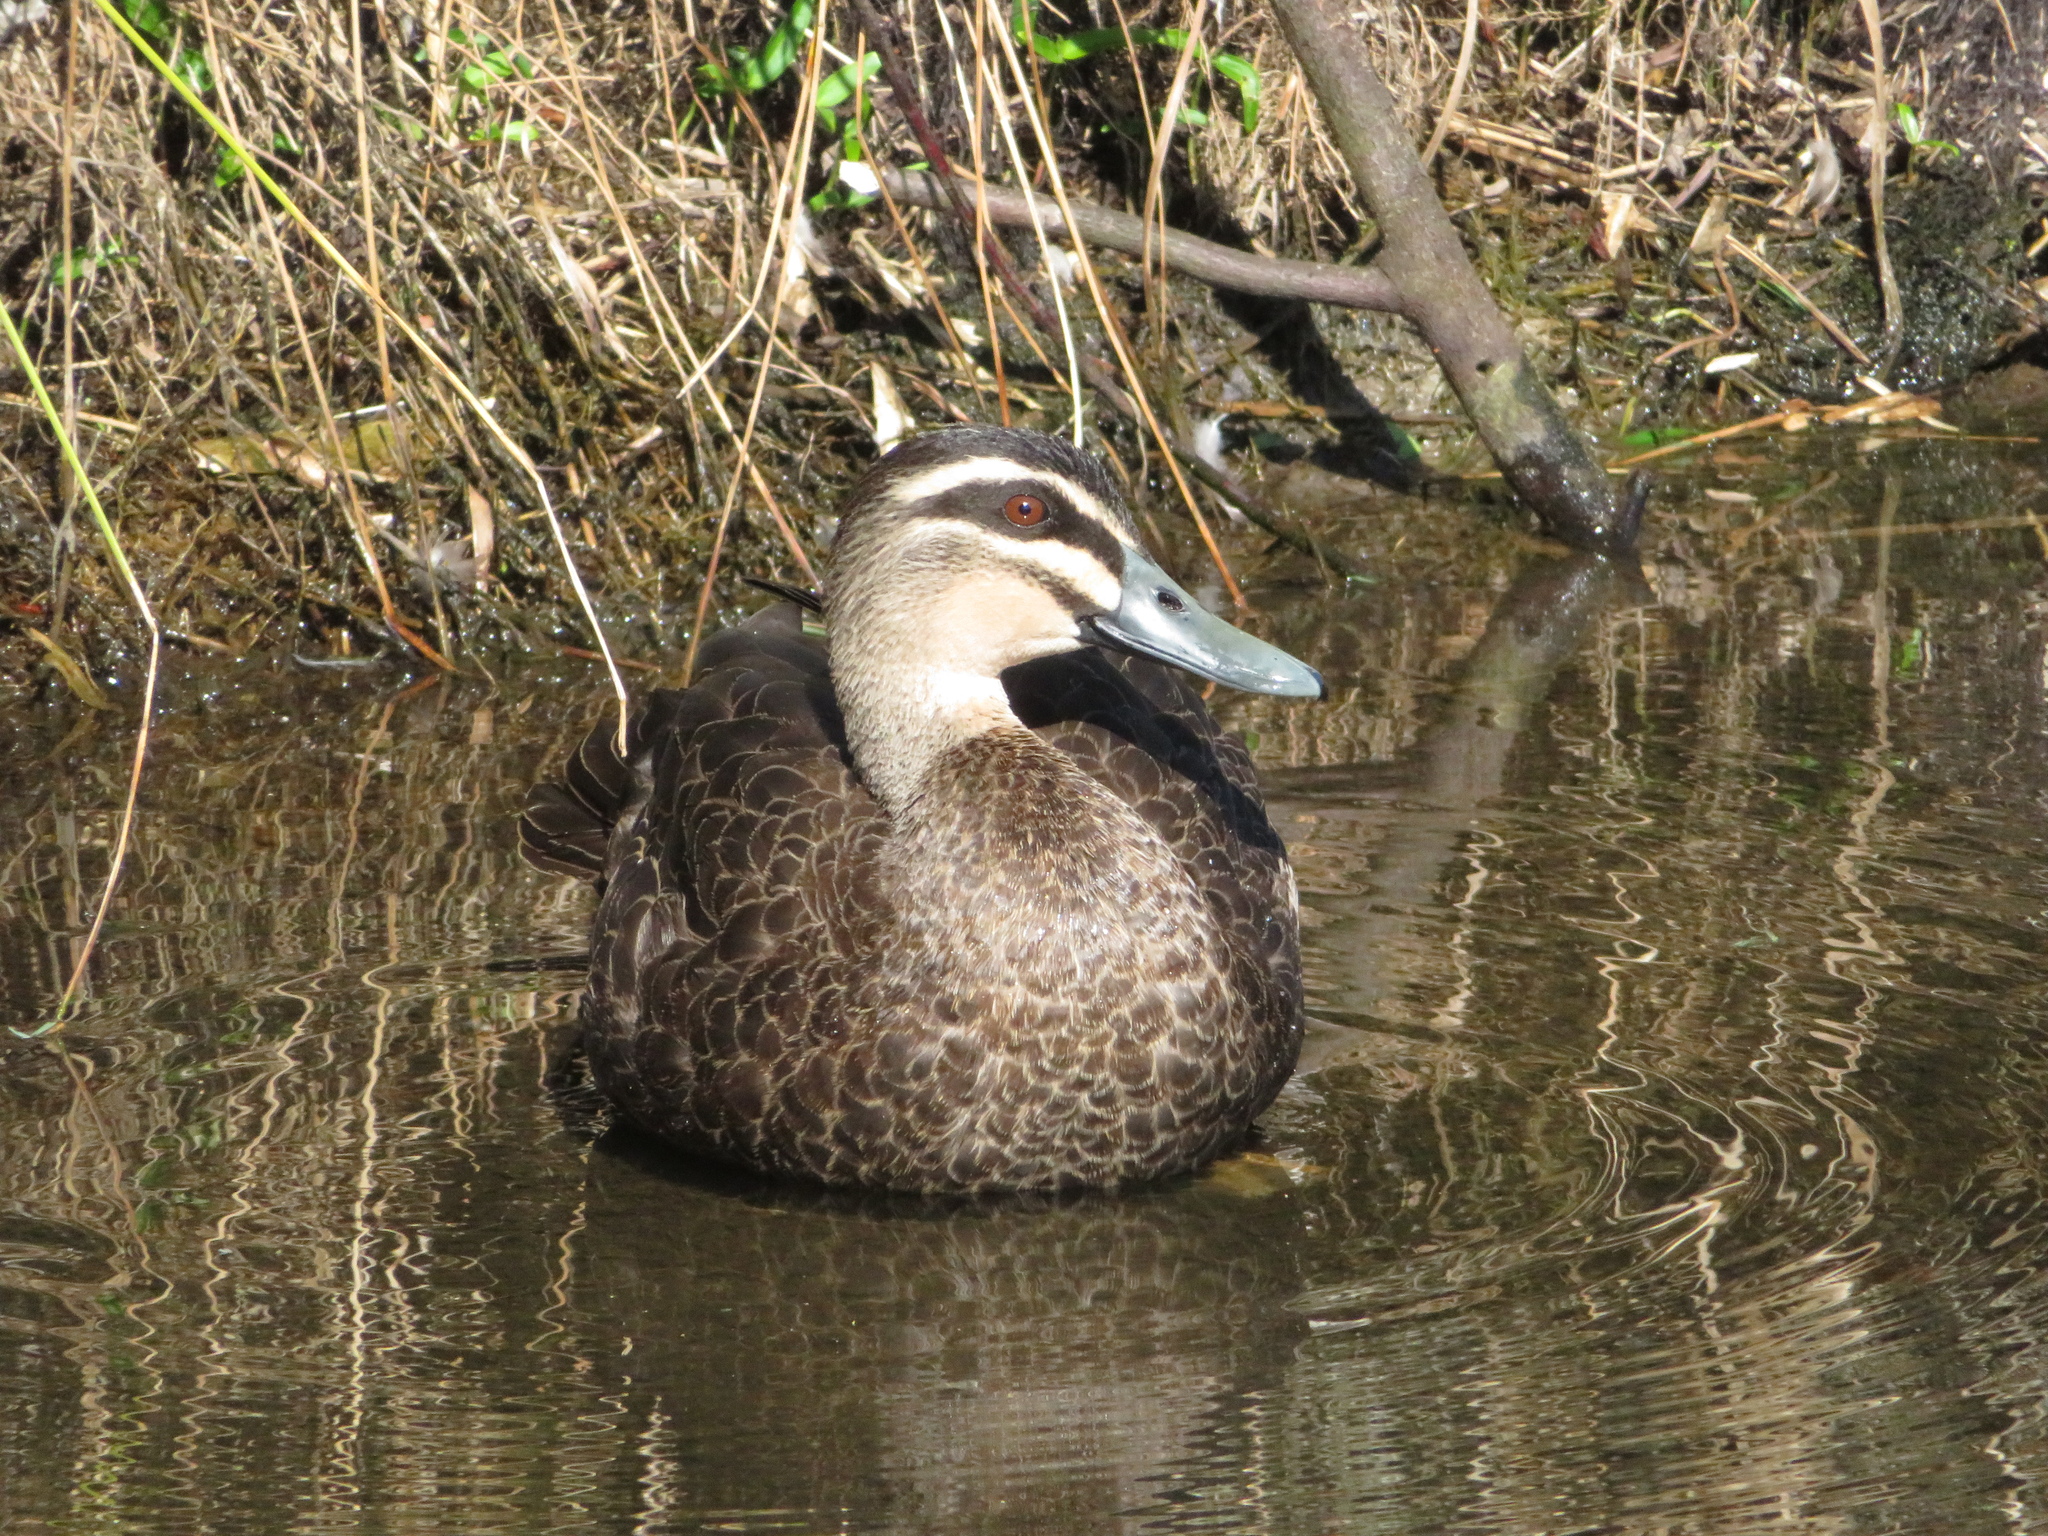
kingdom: Animalia
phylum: Chordata
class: Aves
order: Anseriformes
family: Anatidae
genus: Anas
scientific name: Anas superciliosa
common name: Pacific black duck
